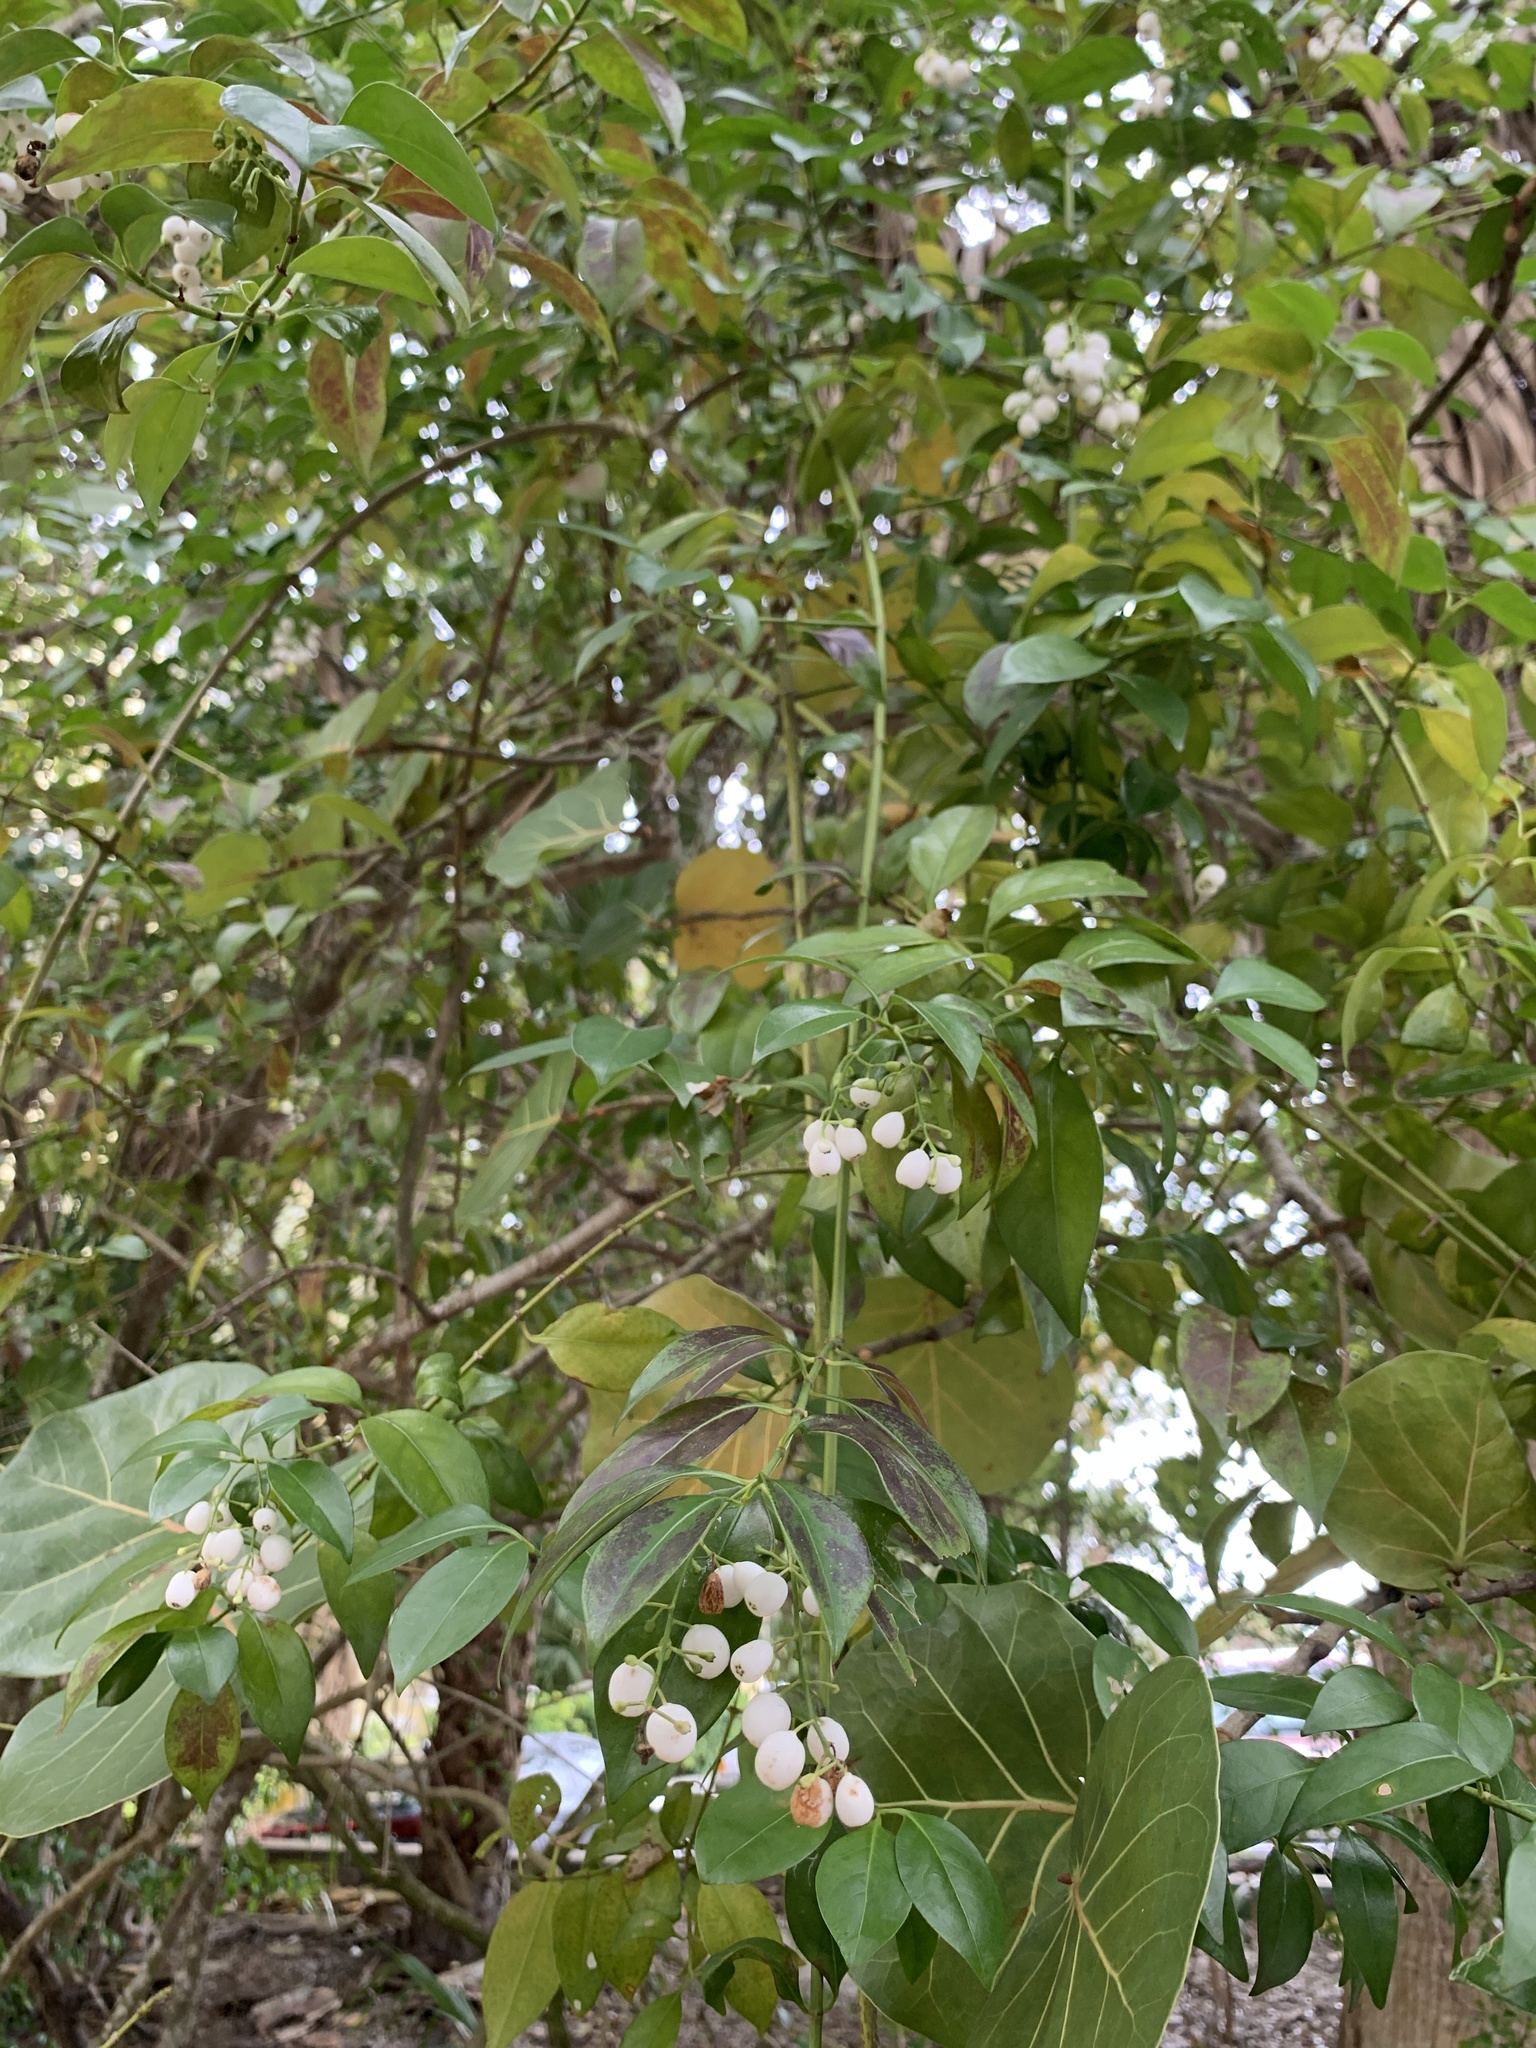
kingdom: Plantae
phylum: Tracheophyta
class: Magnoliopsida
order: Gentianales
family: Rubiaceae
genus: Chiococca
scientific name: Chiococca alba
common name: Snowberry
